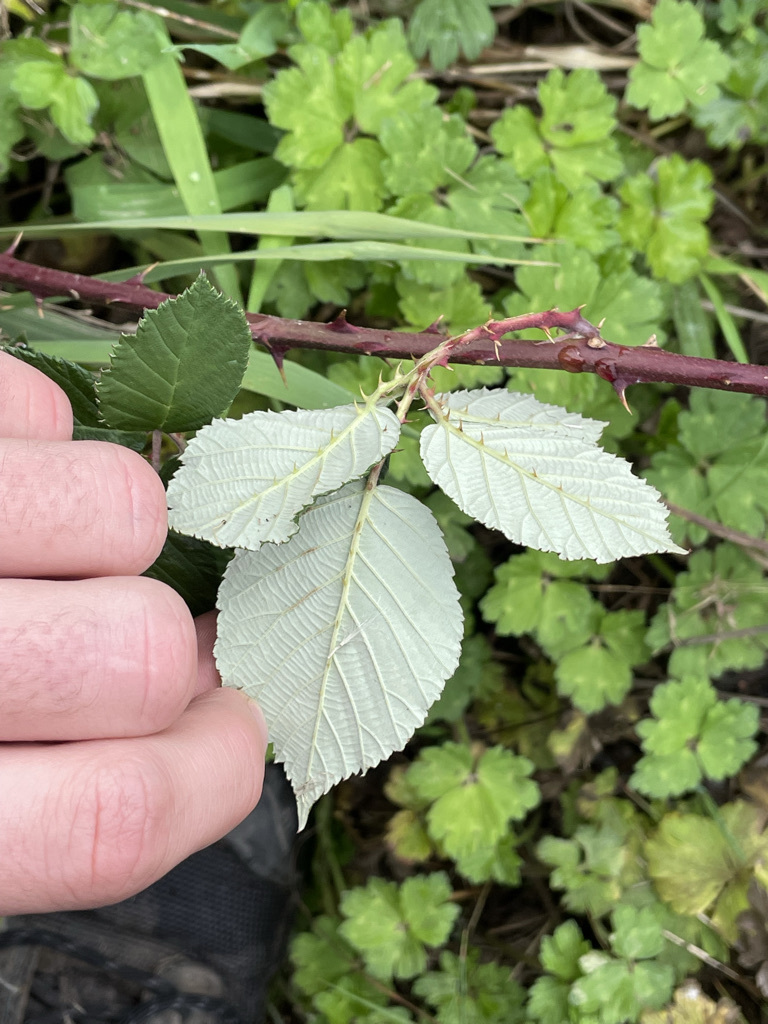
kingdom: Plantae
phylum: Tracheophyta
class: Magnoliopsida
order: Rosales
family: Rosaceae
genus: Rubus
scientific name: Rubus armeniacus
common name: Himalayan blackberry
